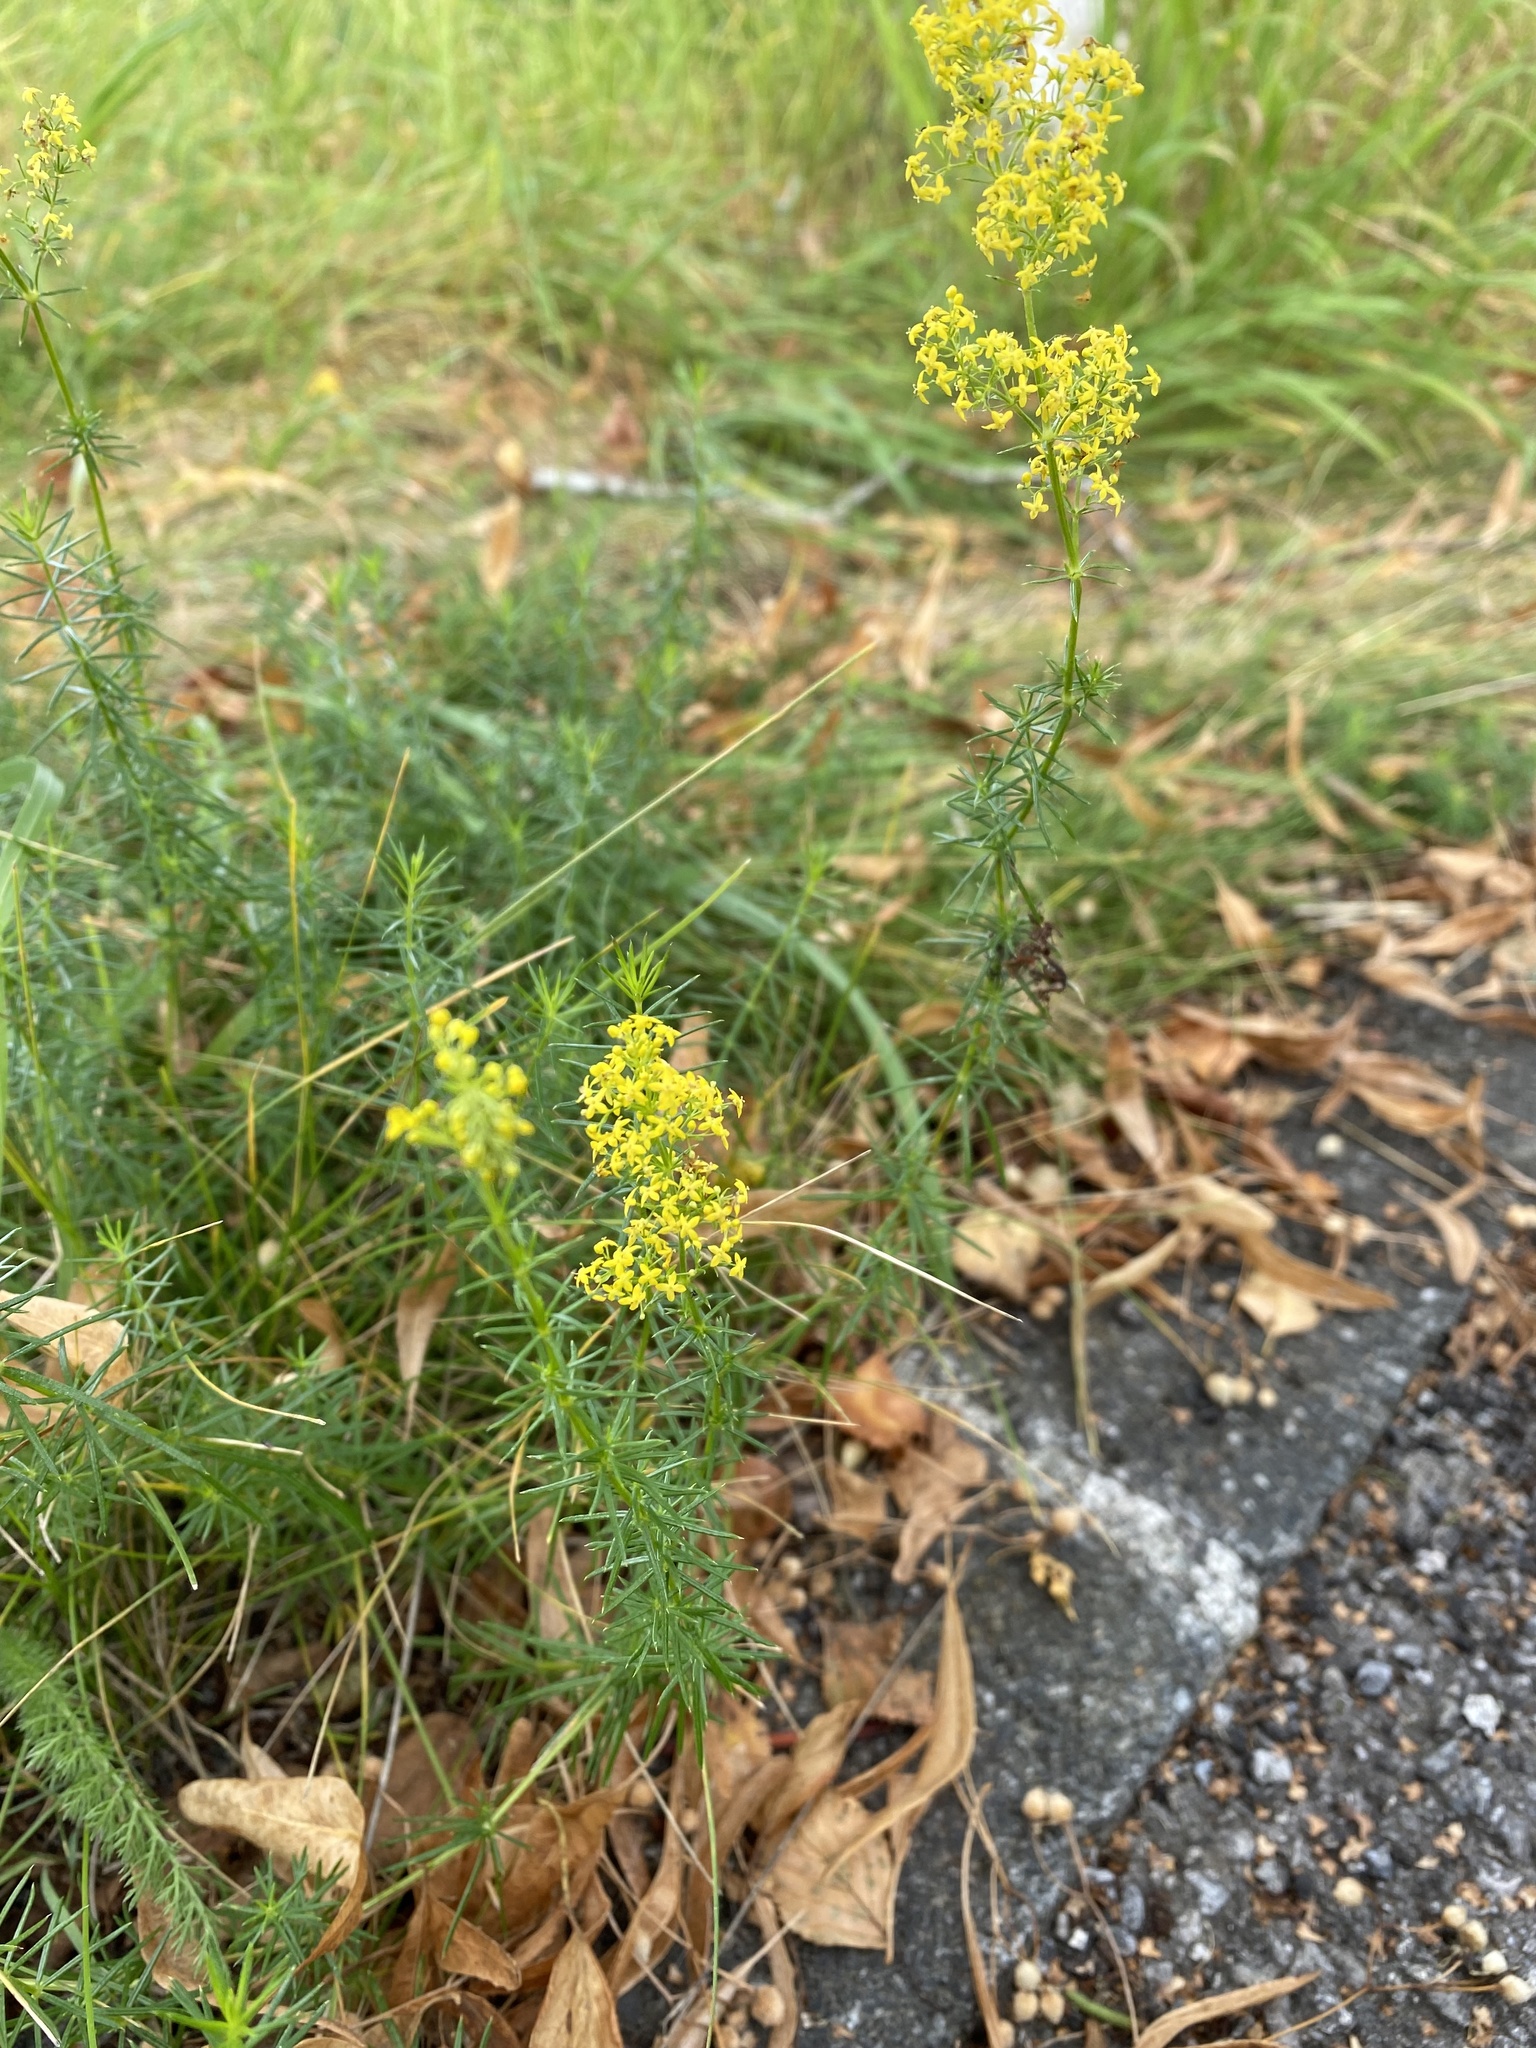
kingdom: Plantae
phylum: Tracheophyta
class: Magnoliopsida
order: Gentianales
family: Rubiaceae
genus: Galium
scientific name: Galium verum
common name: Lady's bedstraw
